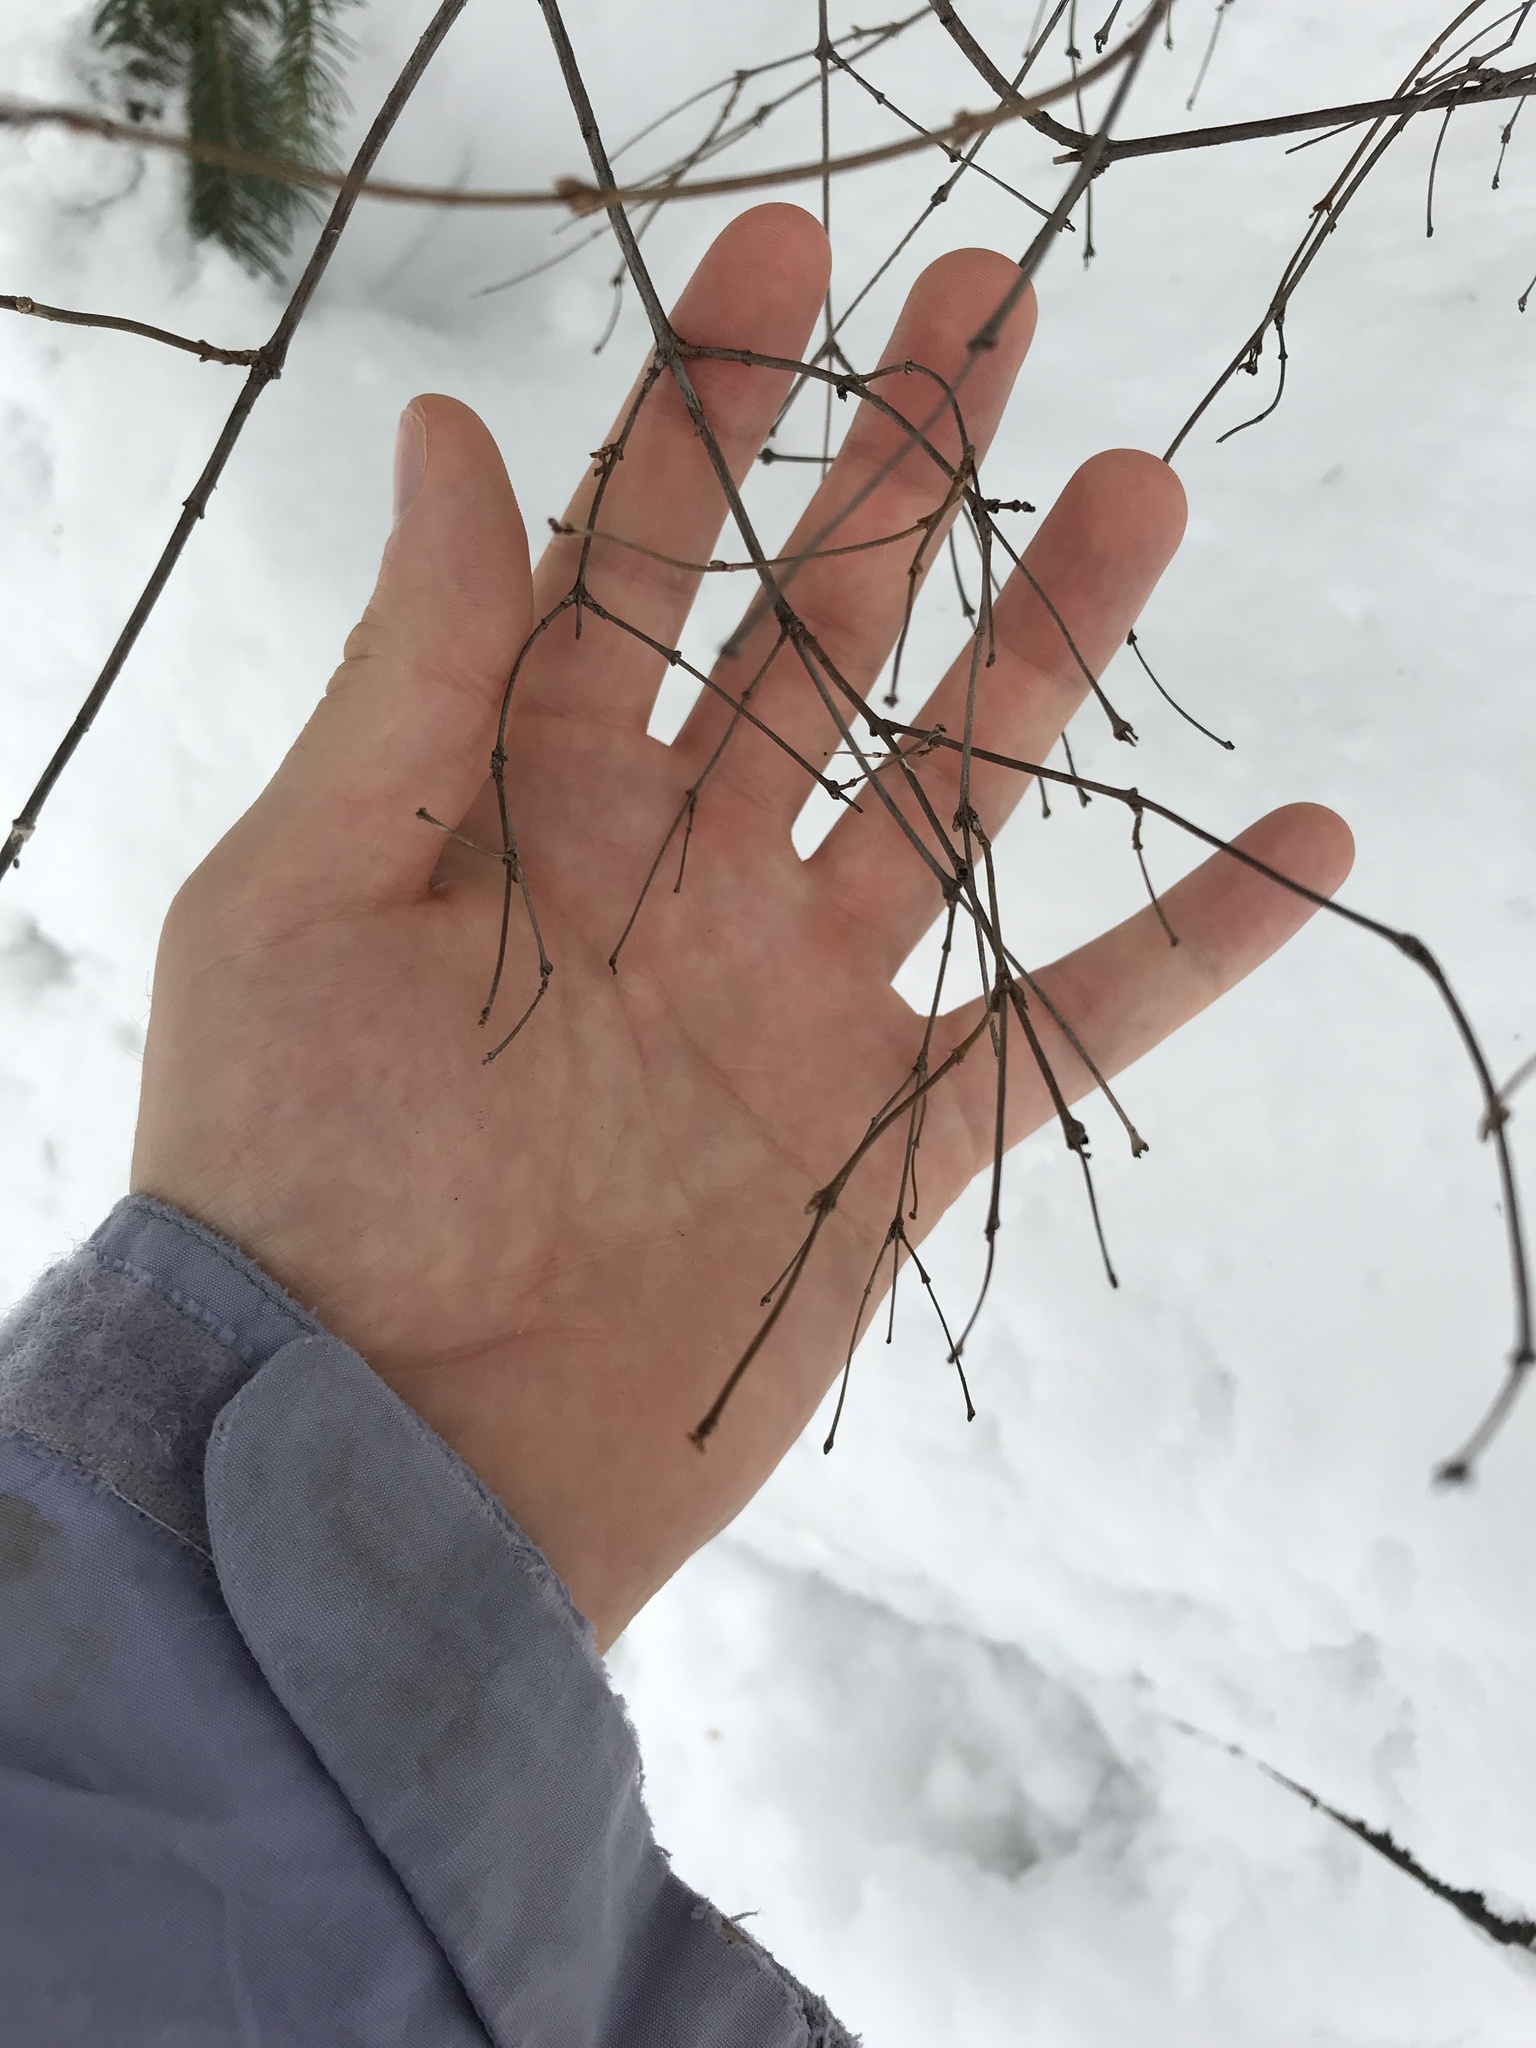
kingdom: Plantae
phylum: Tracheophyta
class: Magnoliopsida
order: Dipsacales
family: Caprifoliaceae
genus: Symphoricarpos
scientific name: Symphoricarpos albus
